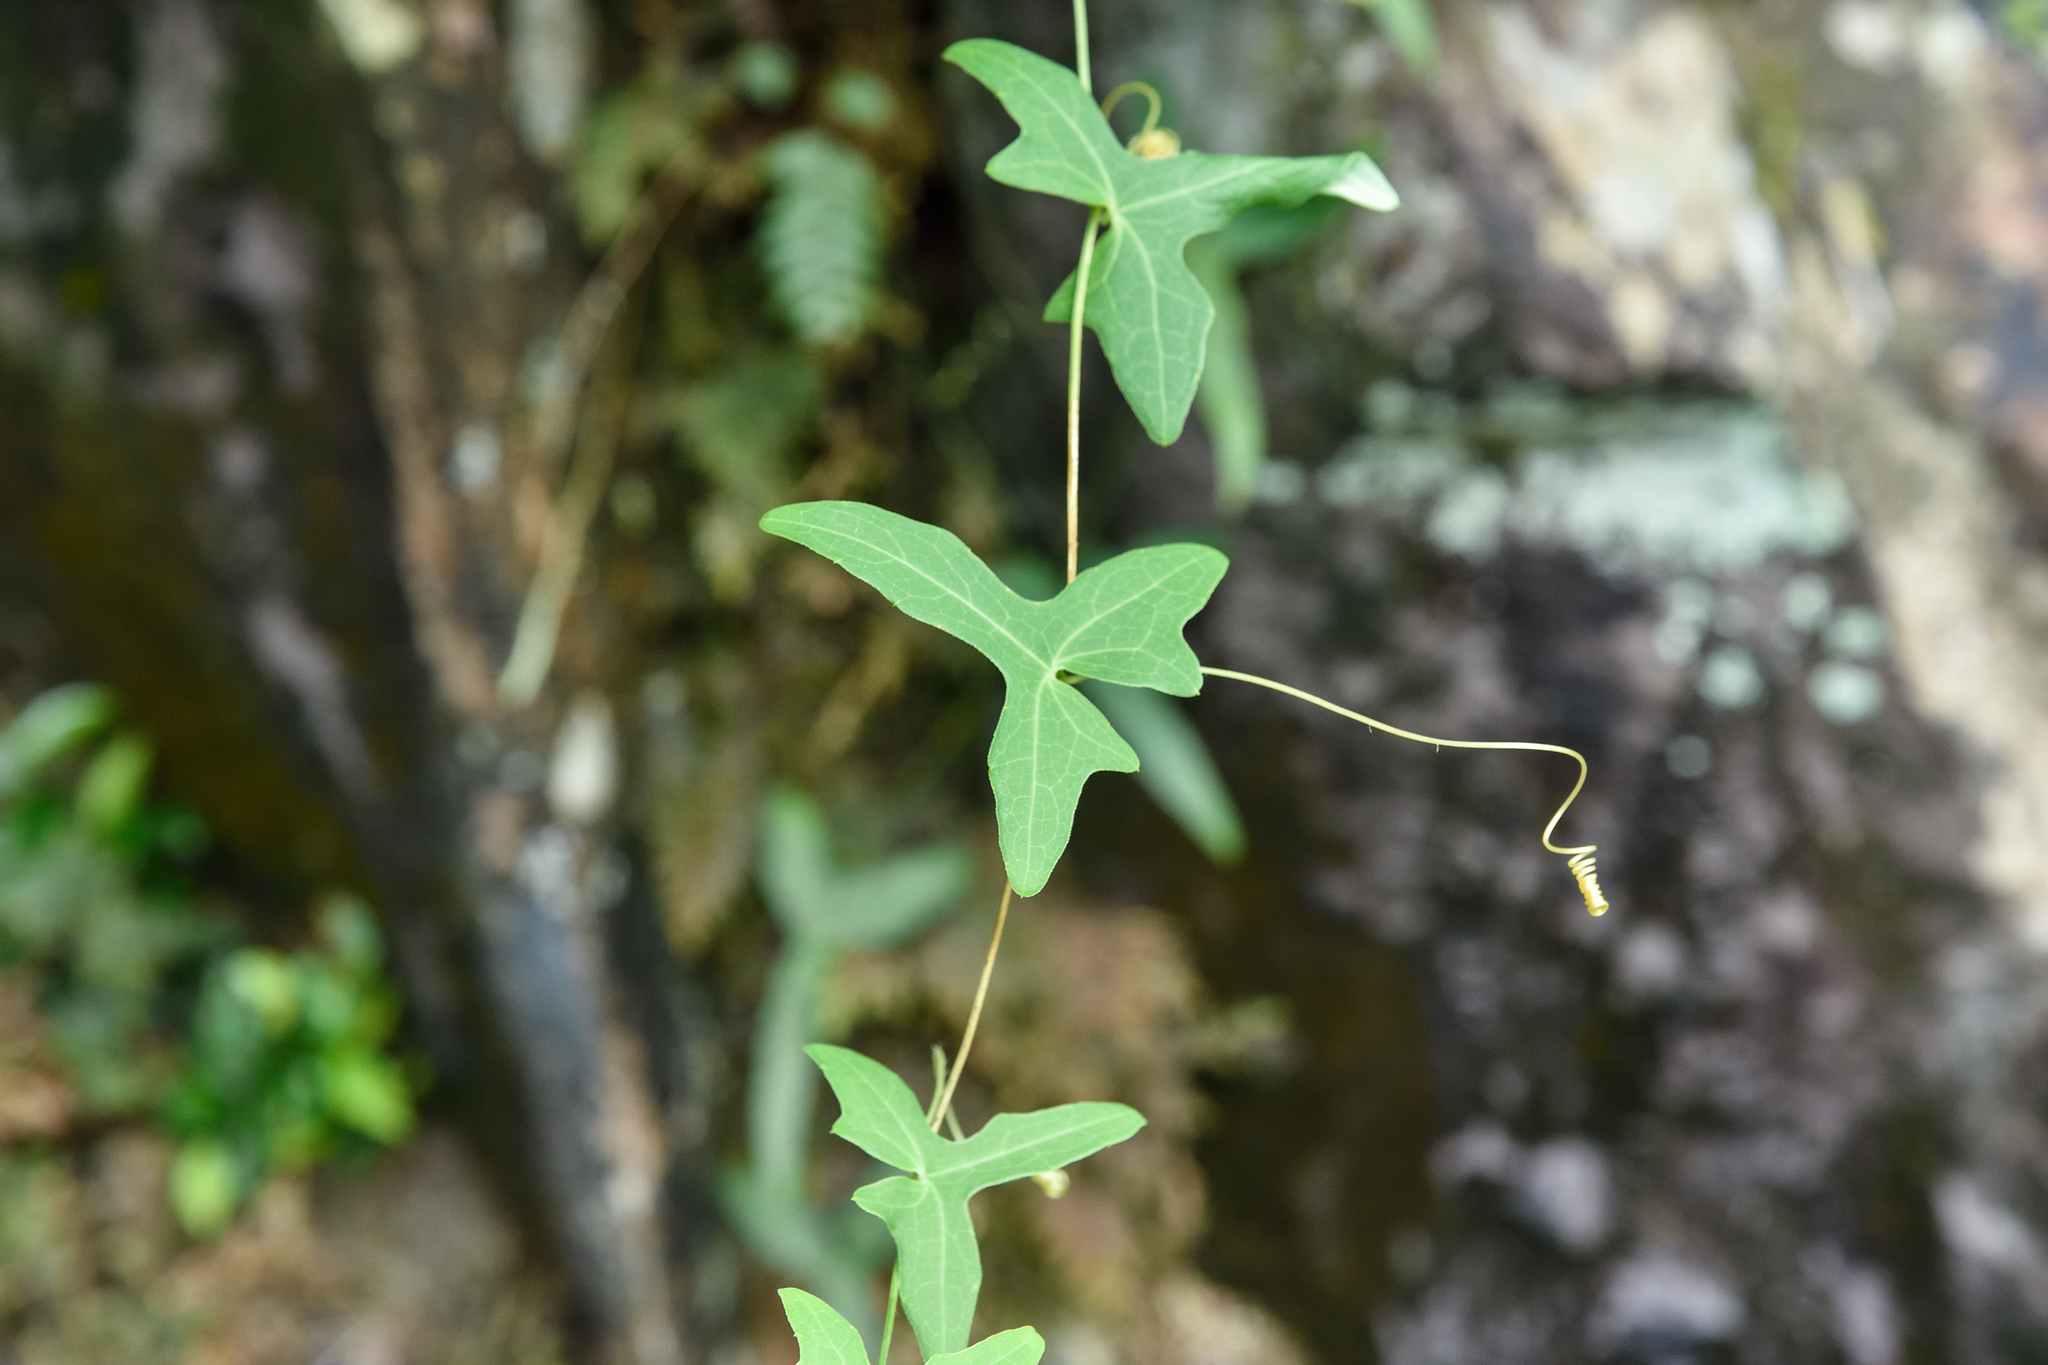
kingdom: Plantae
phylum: Tracheophyta
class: Magnoliopsida
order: Cucurbitales
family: Cucurbitaceae
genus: Solena
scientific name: Solena amplexicaulis
